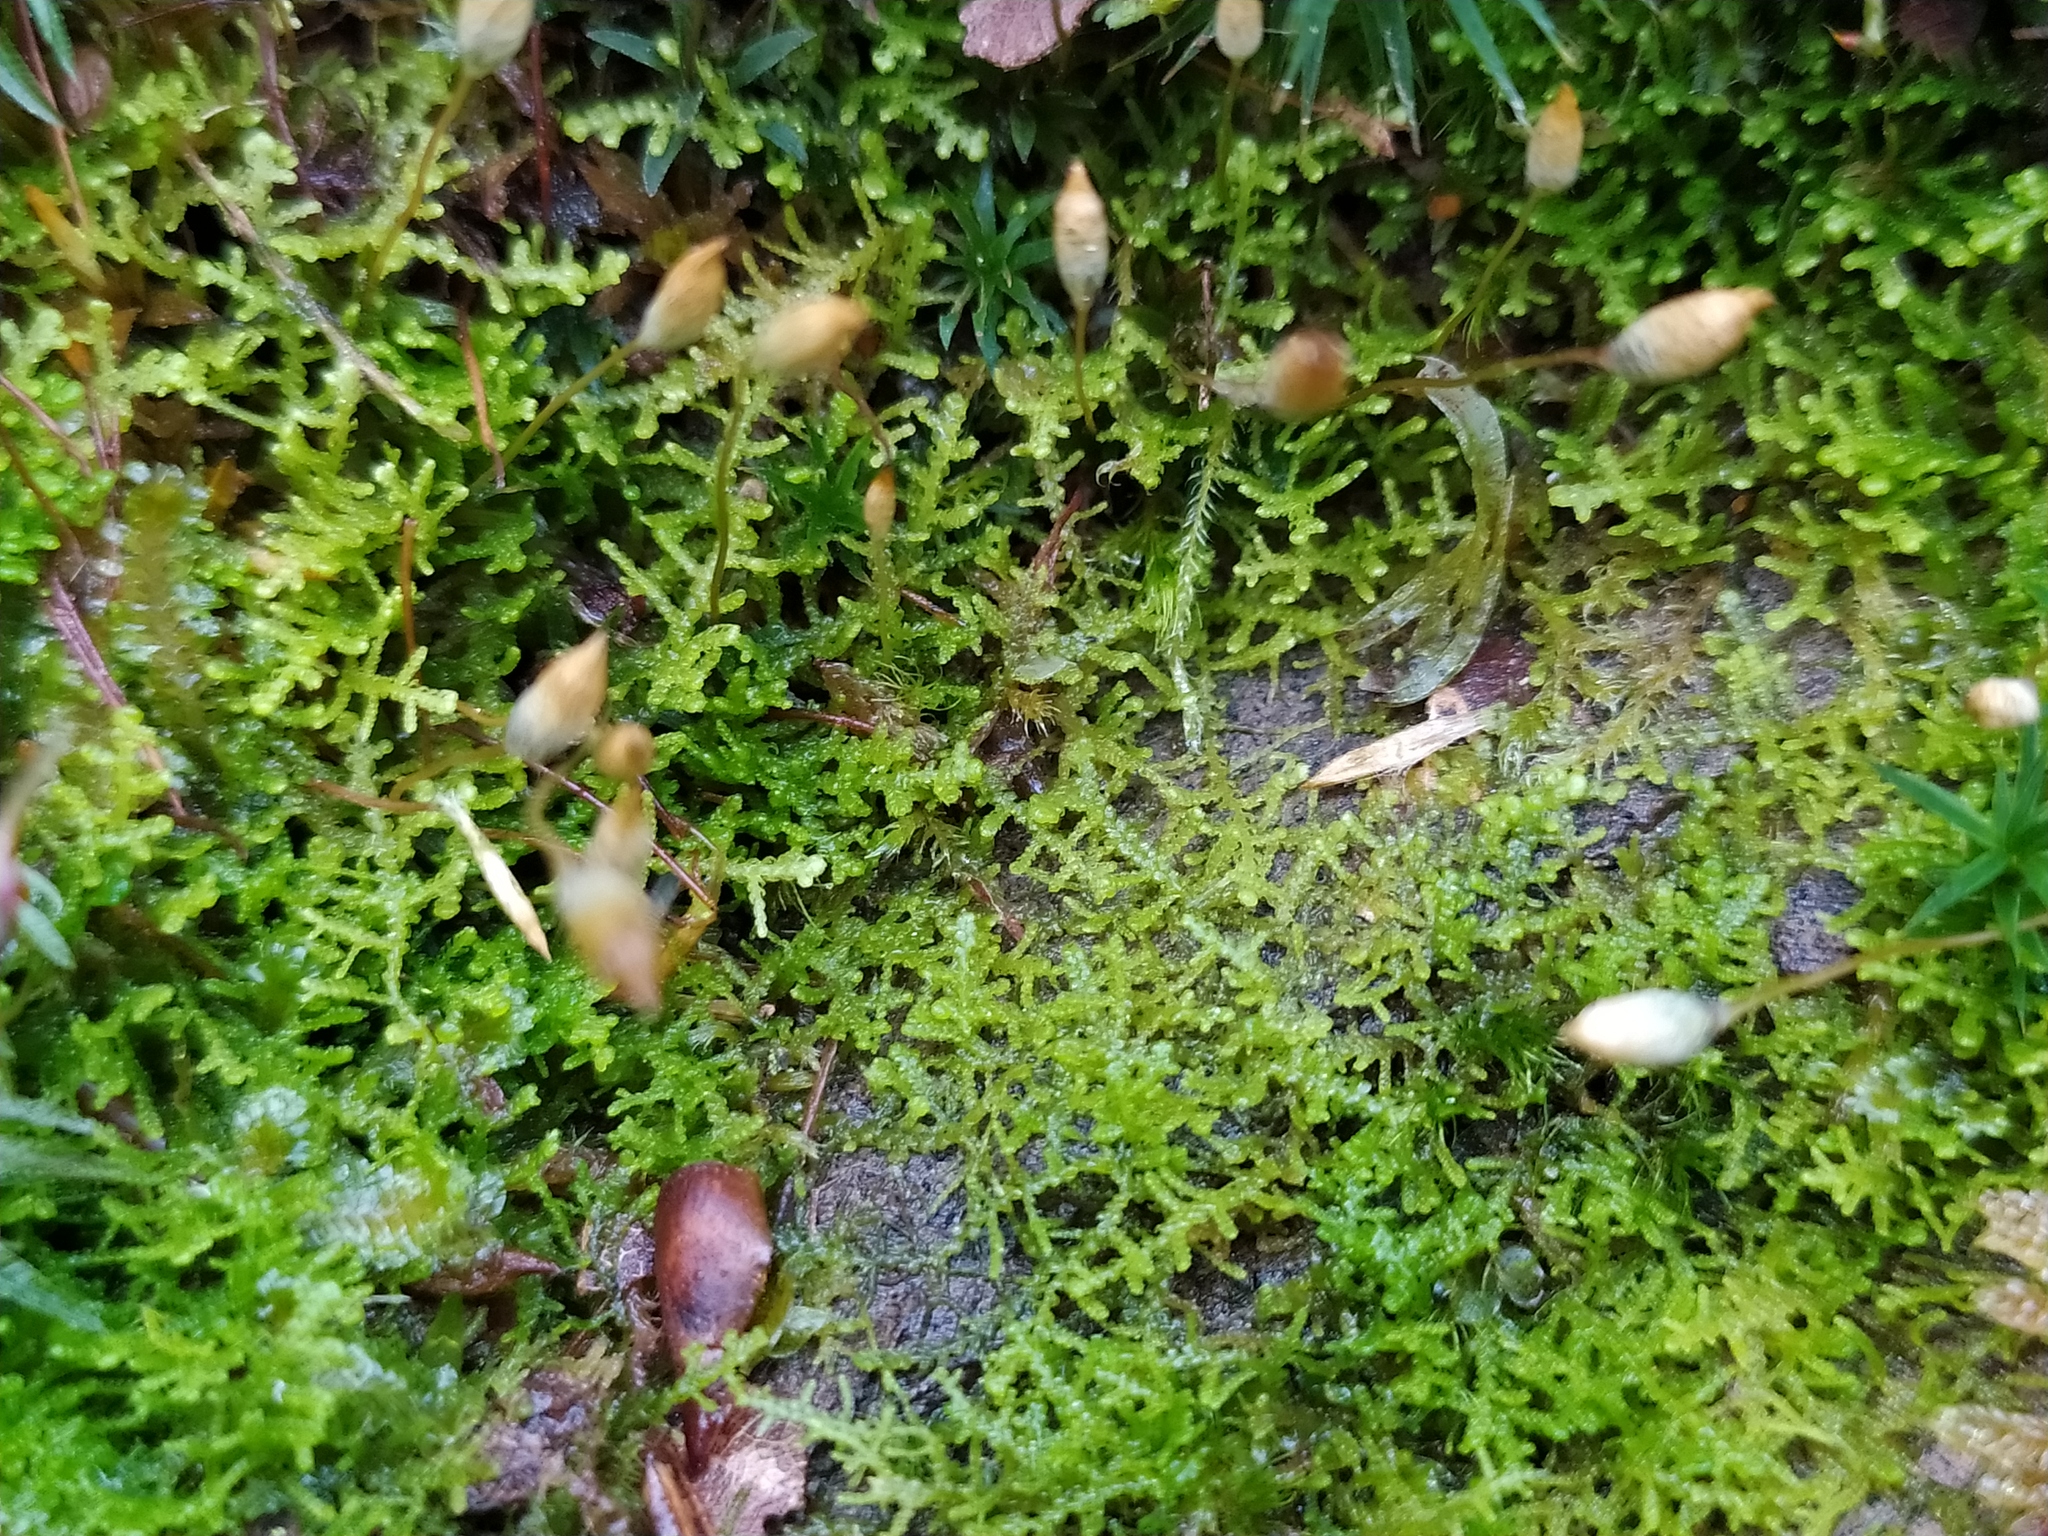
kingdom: Plantae
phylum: Marchantiophyta
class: Jungermanniopsida
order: Jungermanniales
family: Lepidoziaceae
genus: Lepidozia
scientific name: Lepidozia reptans
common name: Creeping fingerwort
